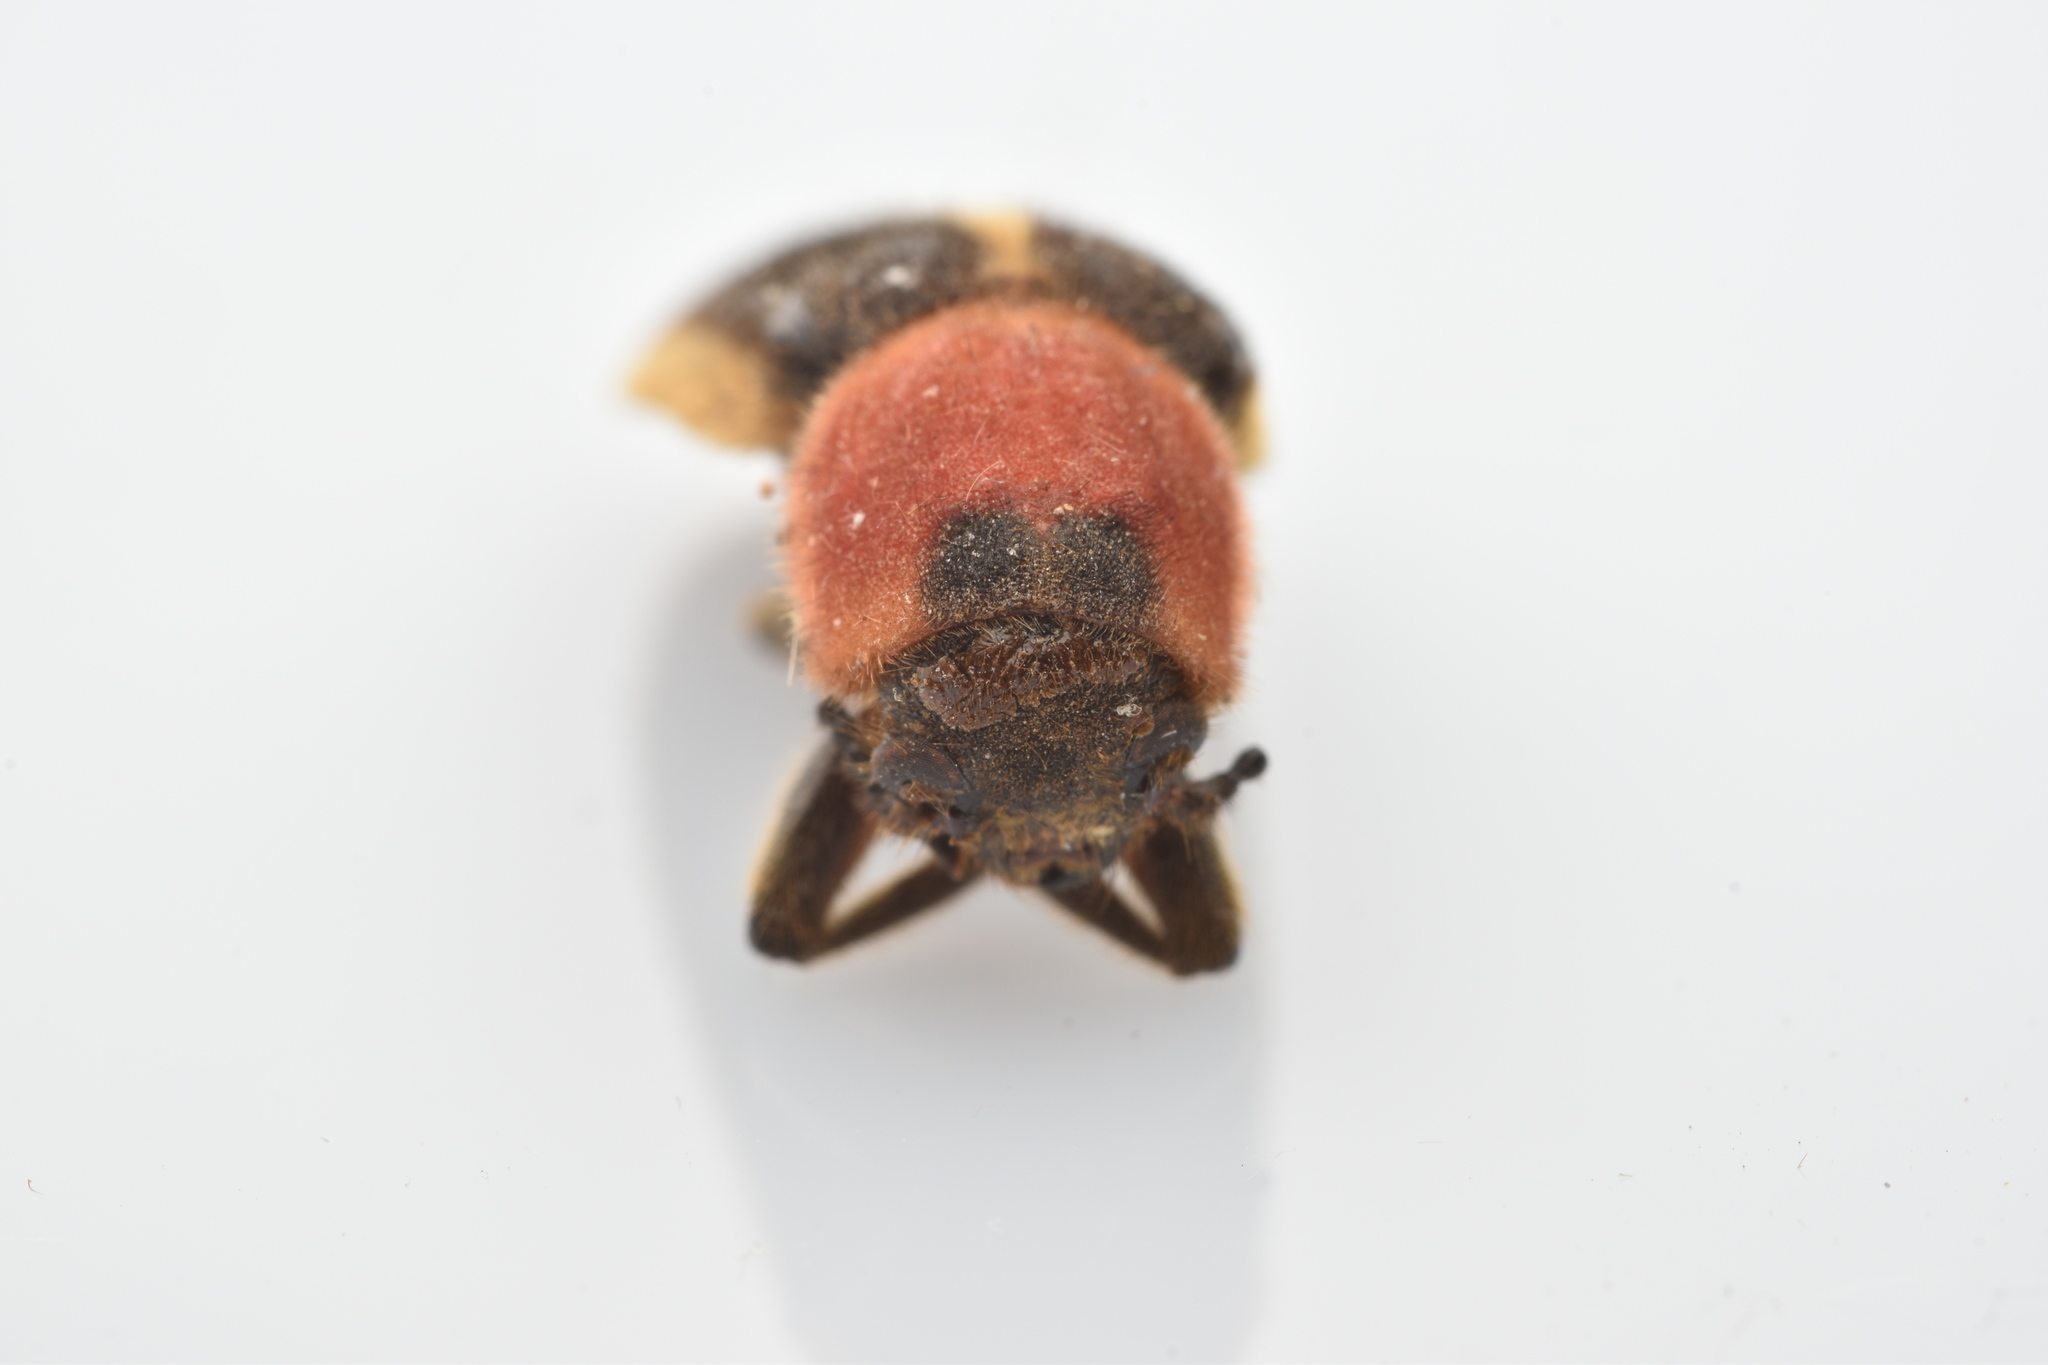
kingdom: Animalia
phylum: Arthropoda
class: Insecta
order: Coleoptera
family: Cleridae
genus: Chariessa
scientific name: Chariessa pilosa
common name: Pilose checkered beetle
